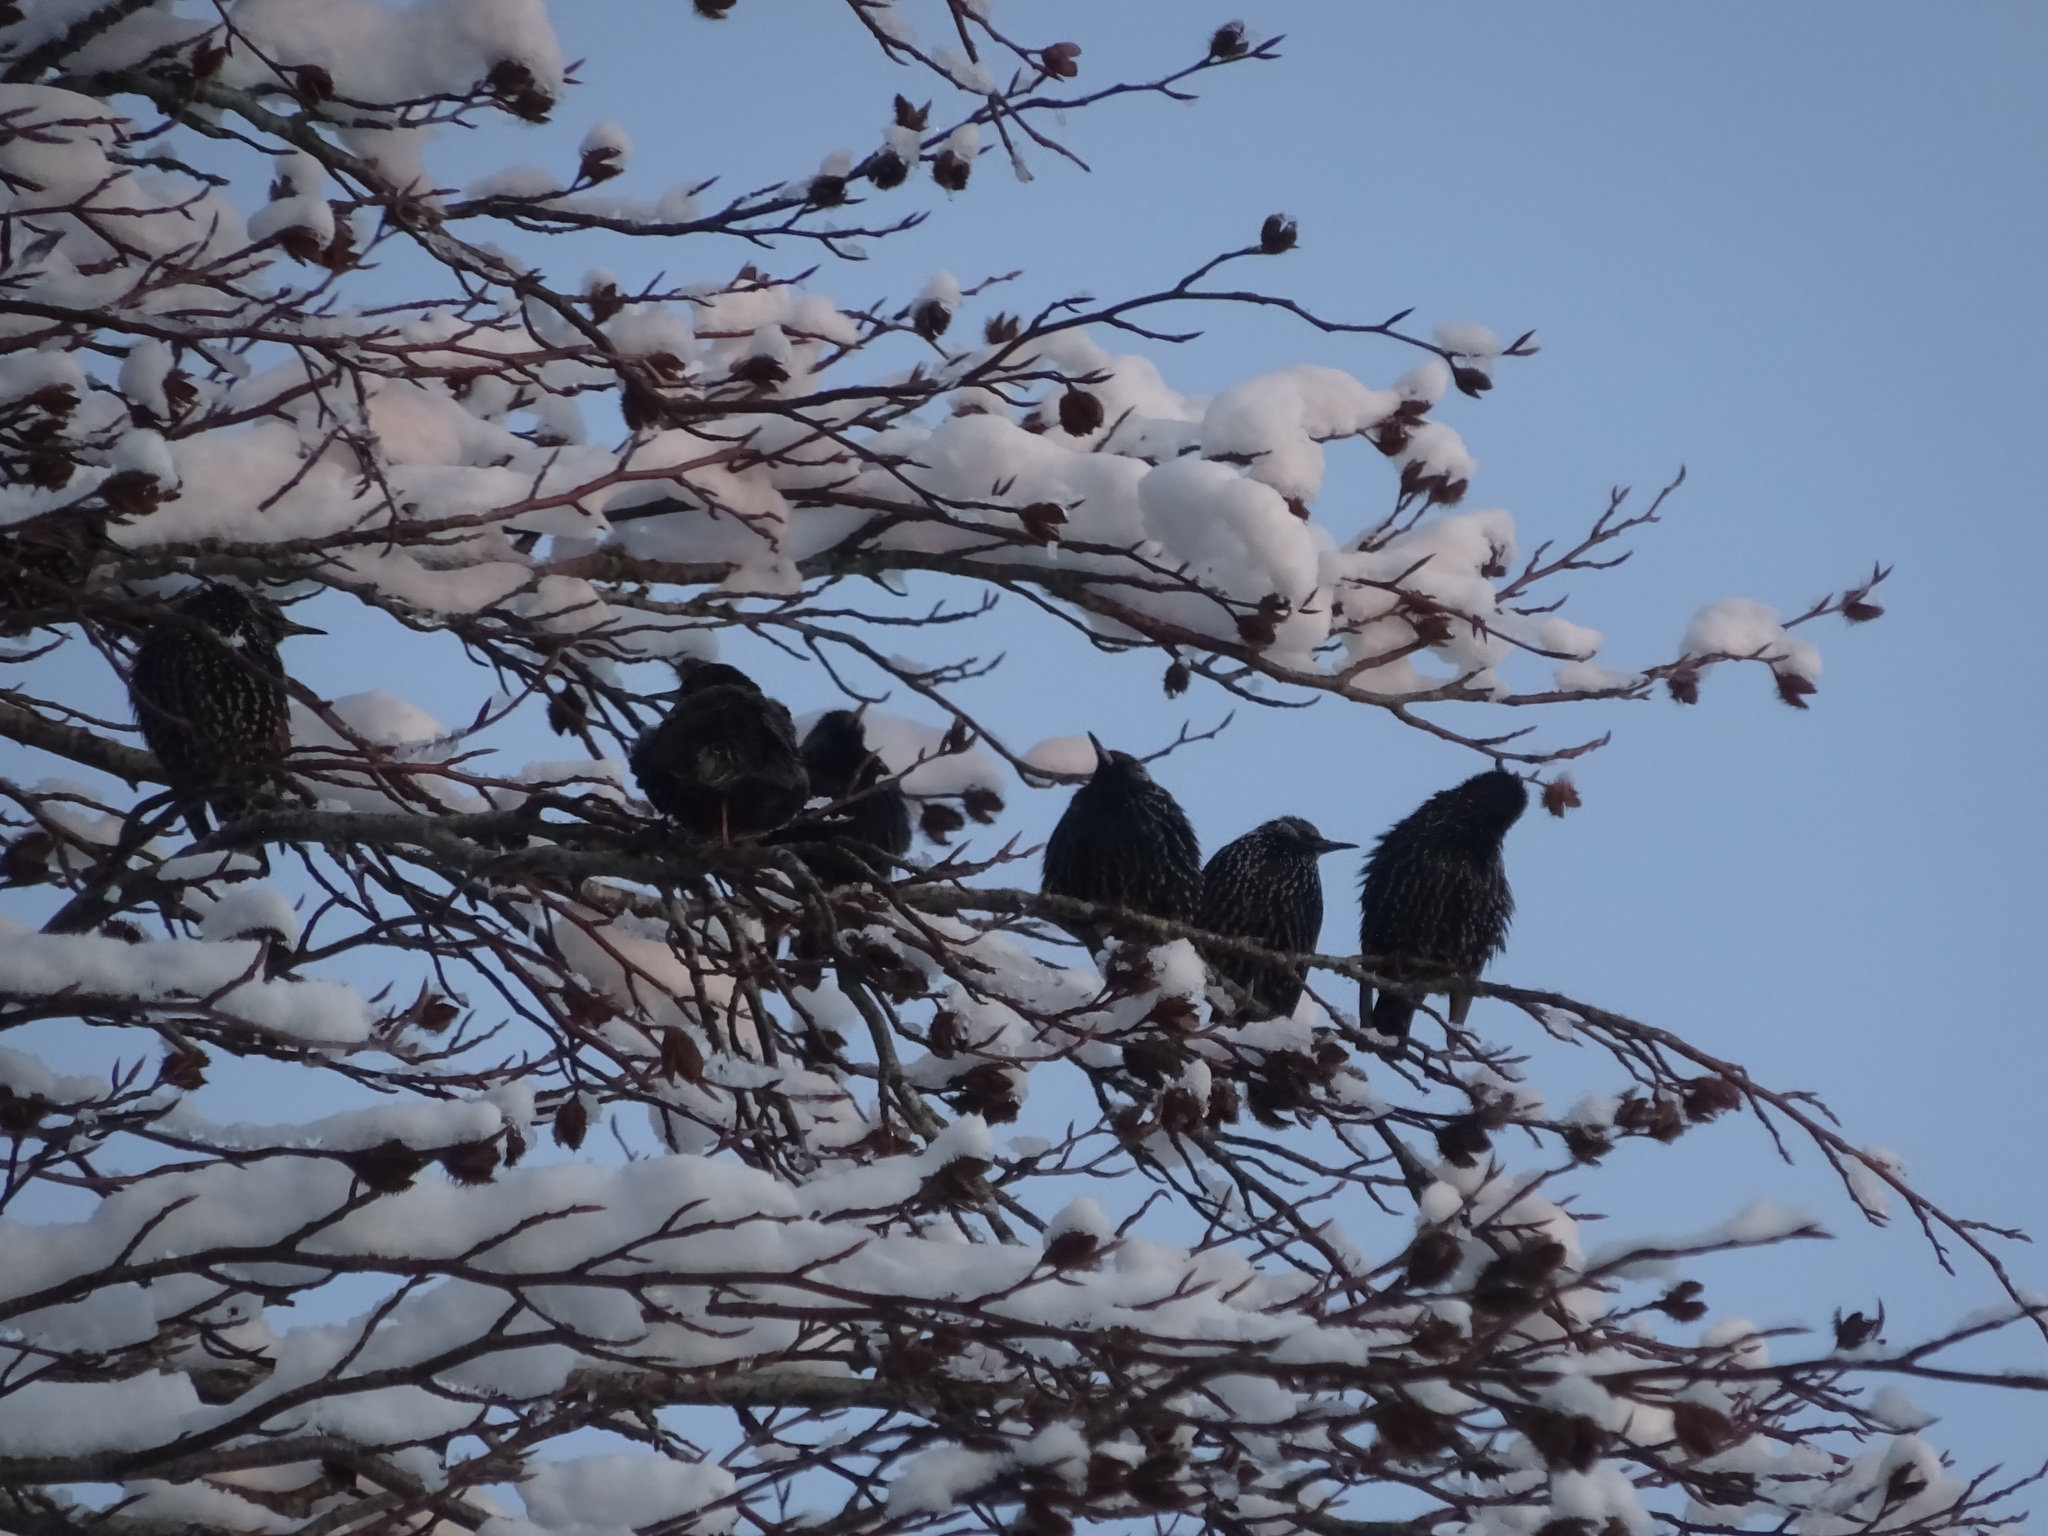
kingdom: Animalia
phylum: Chordata
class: Aves
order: Passeriformes
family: Sturnidae
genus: Sturnus
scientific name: Sturnus vulgaris
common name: Common starling
